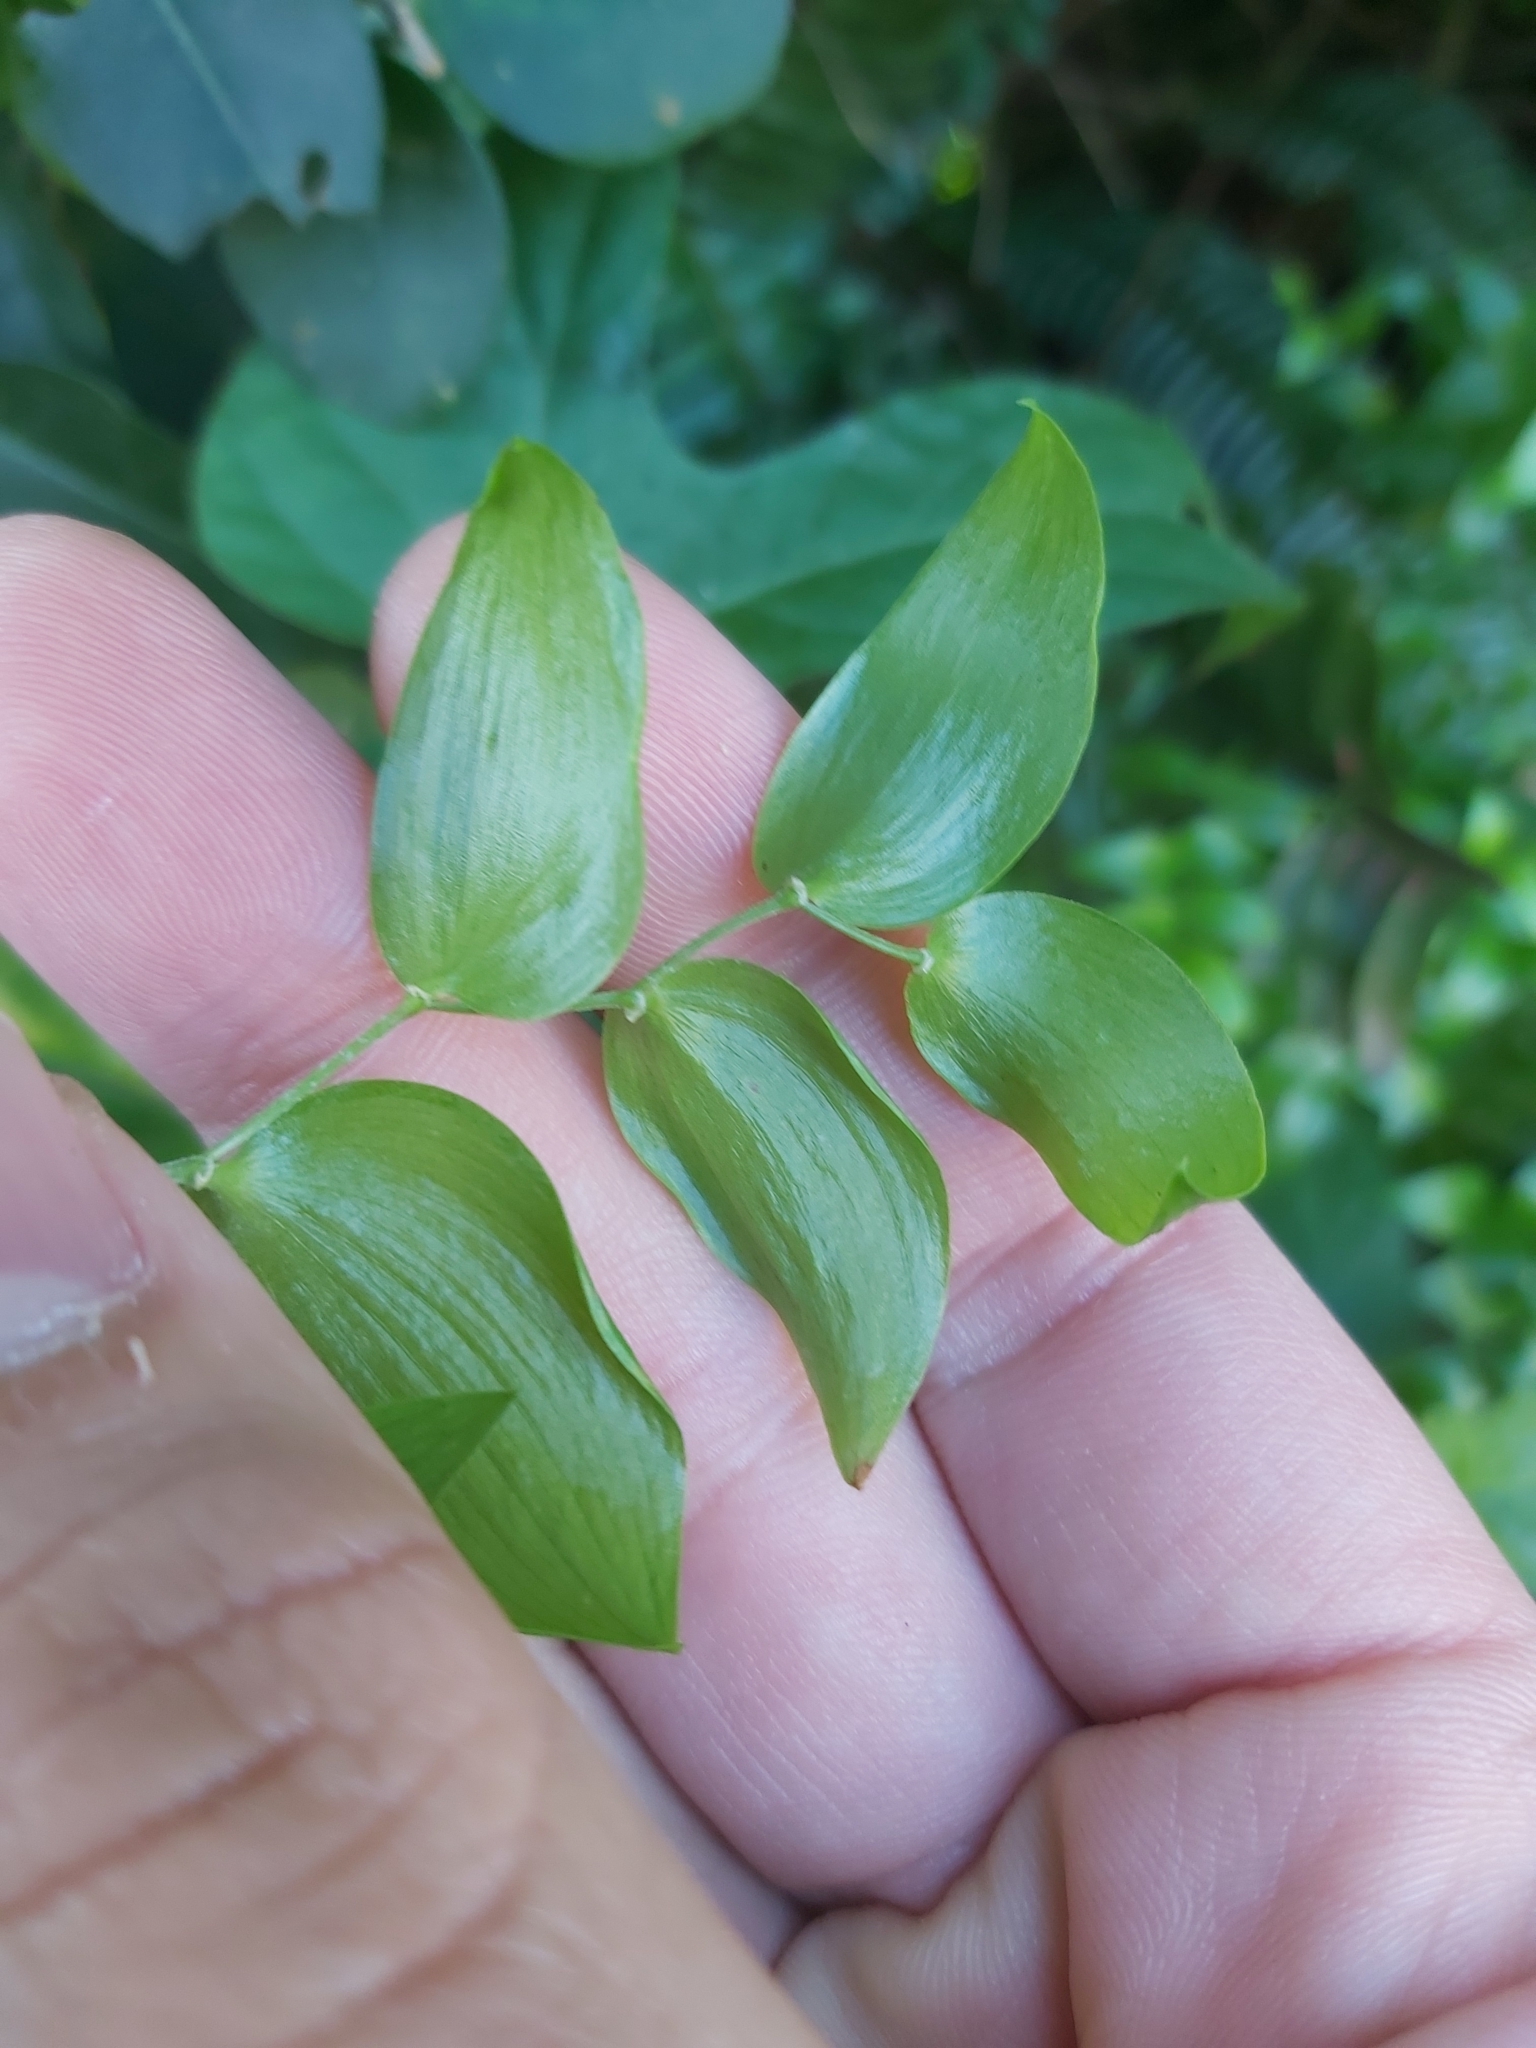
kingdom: Plantae
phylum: Tracheophyta
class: Liliopsida
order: Asparagales
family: Asparagaceae
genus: Asparagus
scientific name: Asparagus asparagoides
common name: African asparagus fern
